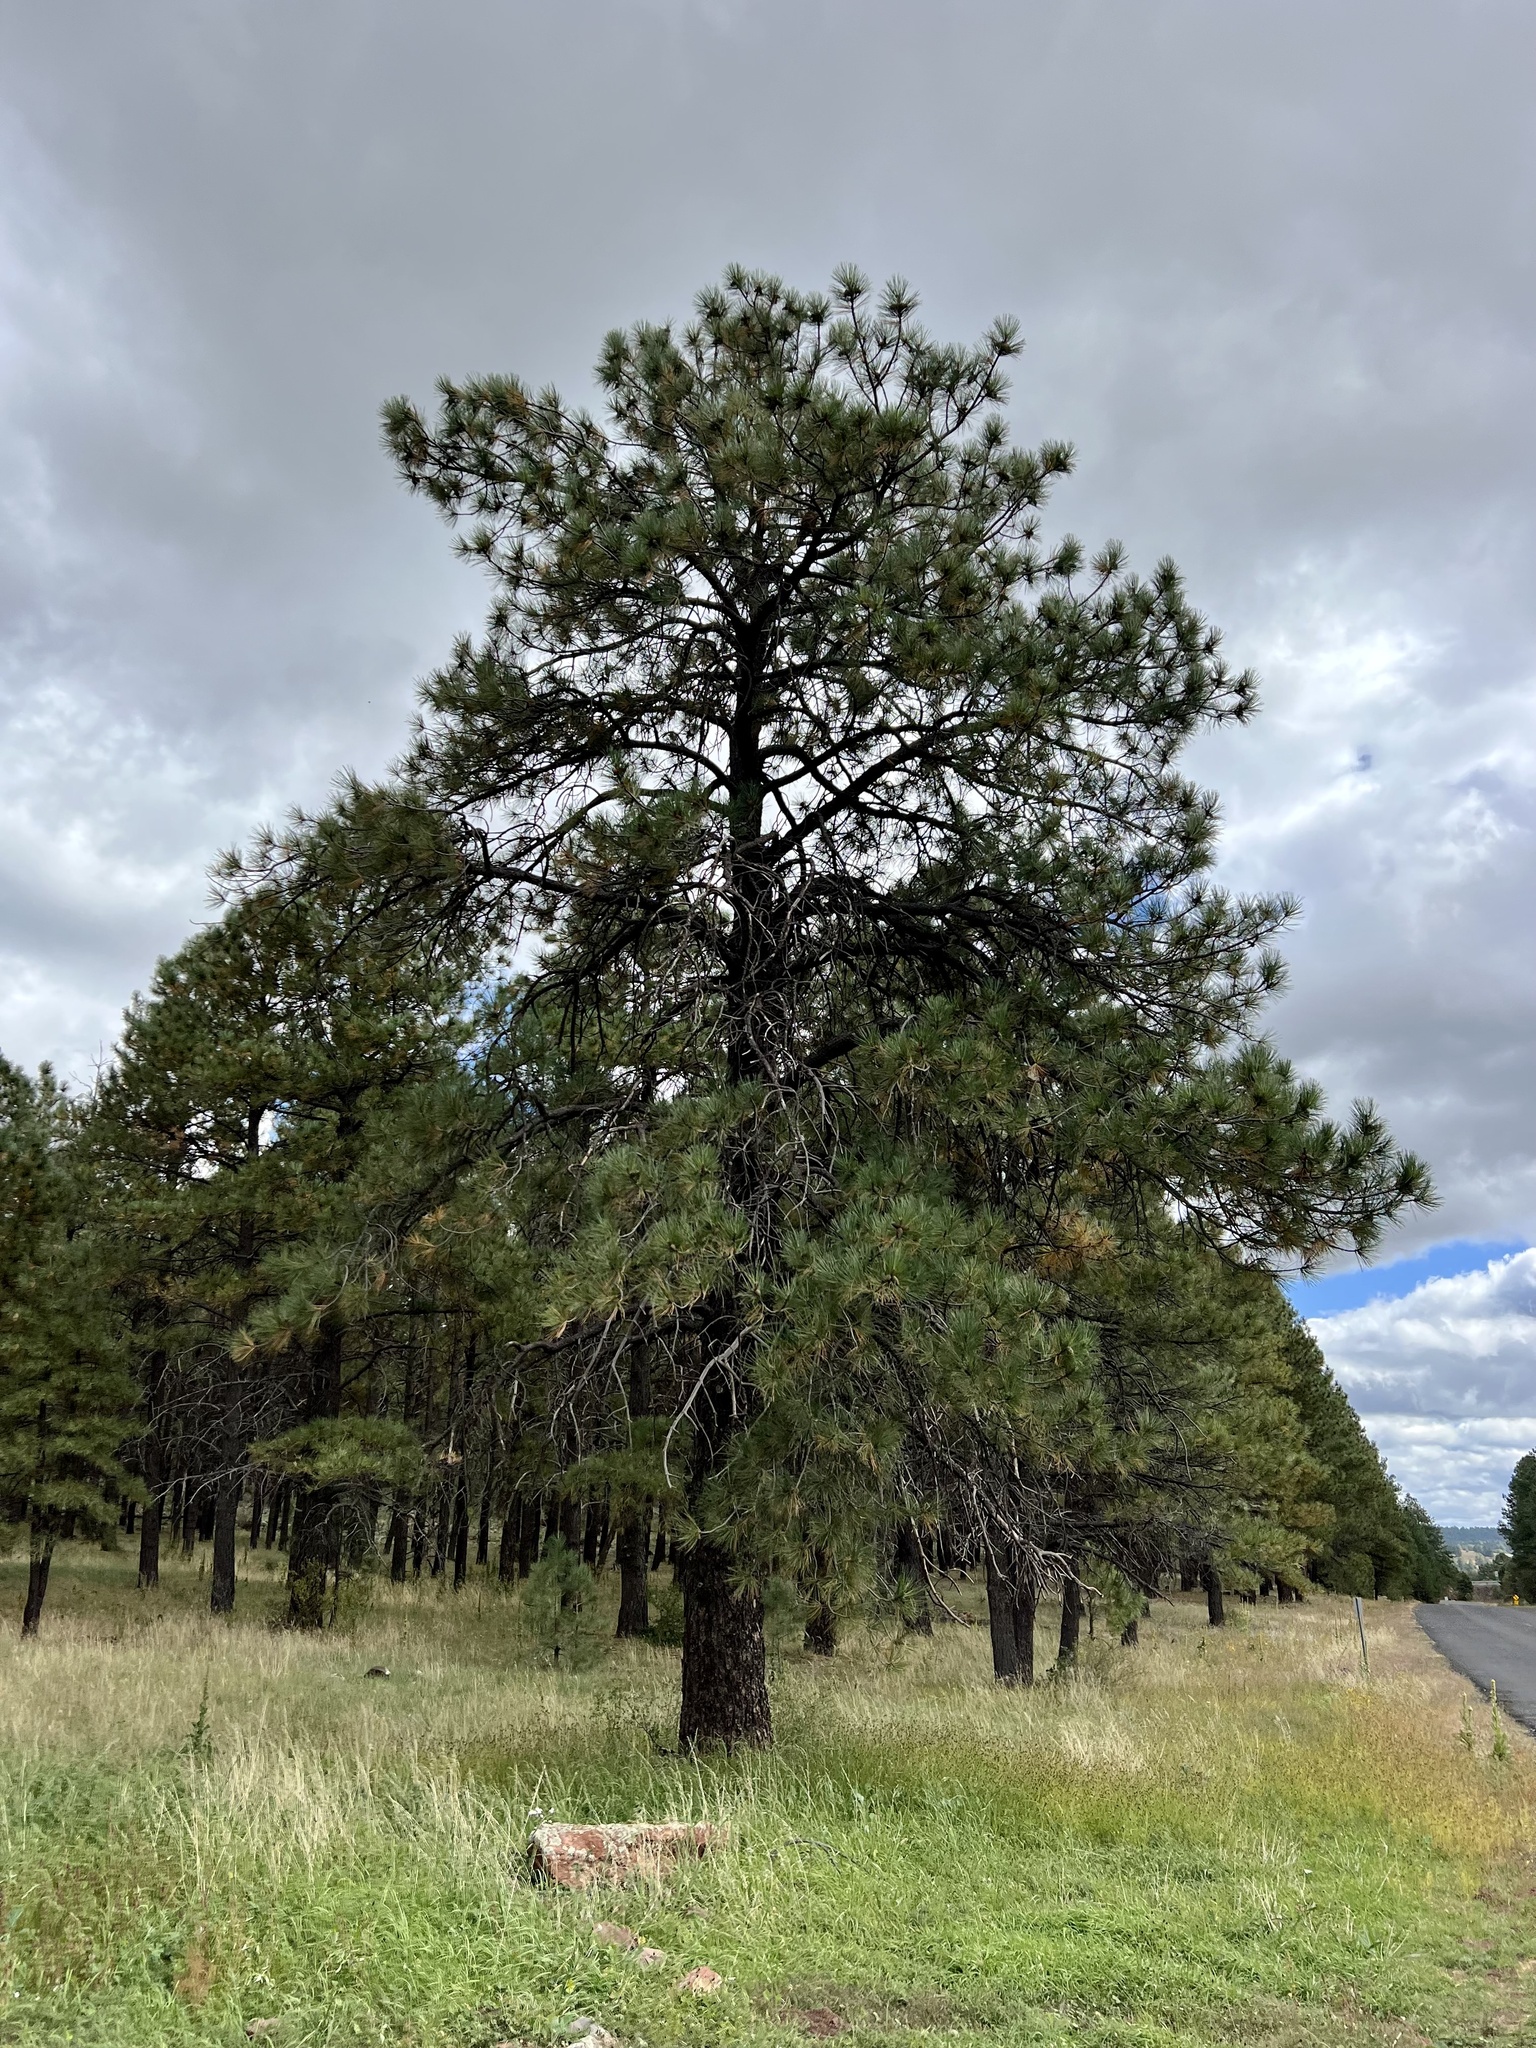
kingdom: Plantae
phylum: Tracheophyta
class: Pinopsida
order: Pinales
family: Pinaceae
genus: Pinus
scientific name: Pinus ponderosa
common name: Western yellow-pine
